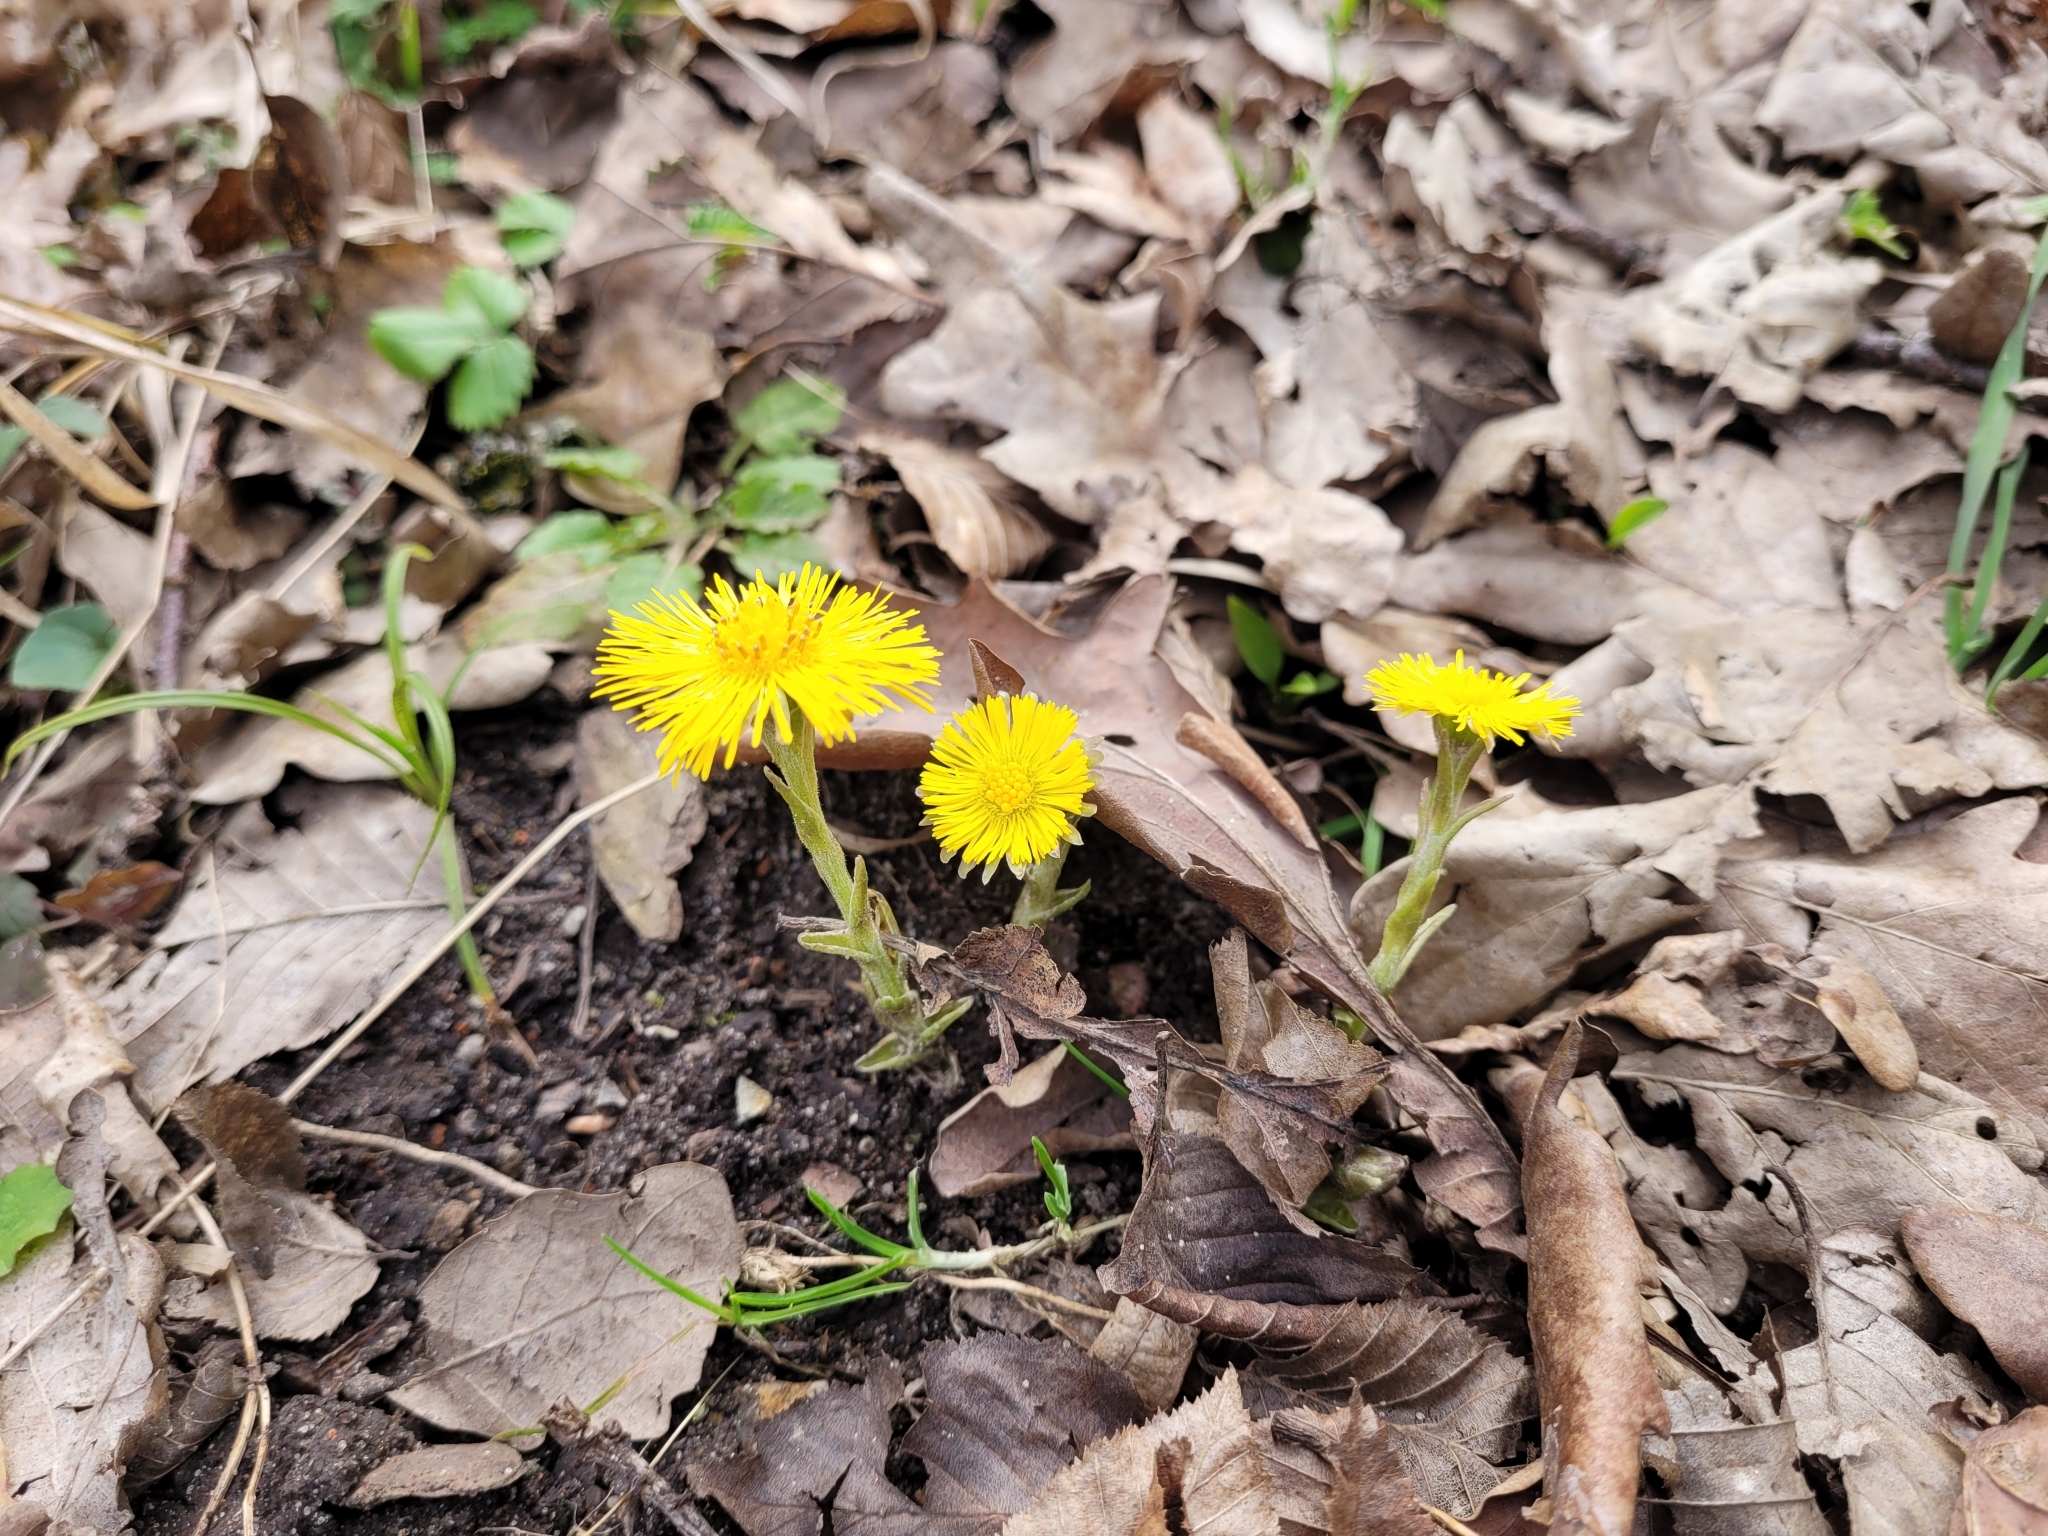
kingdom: Plantae
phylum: Tracheophyta
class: Magnoliopsida
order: Asterales
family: Asteraceae
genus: Tussilago
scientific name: Tussilago farfara
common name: Coltsfoot
